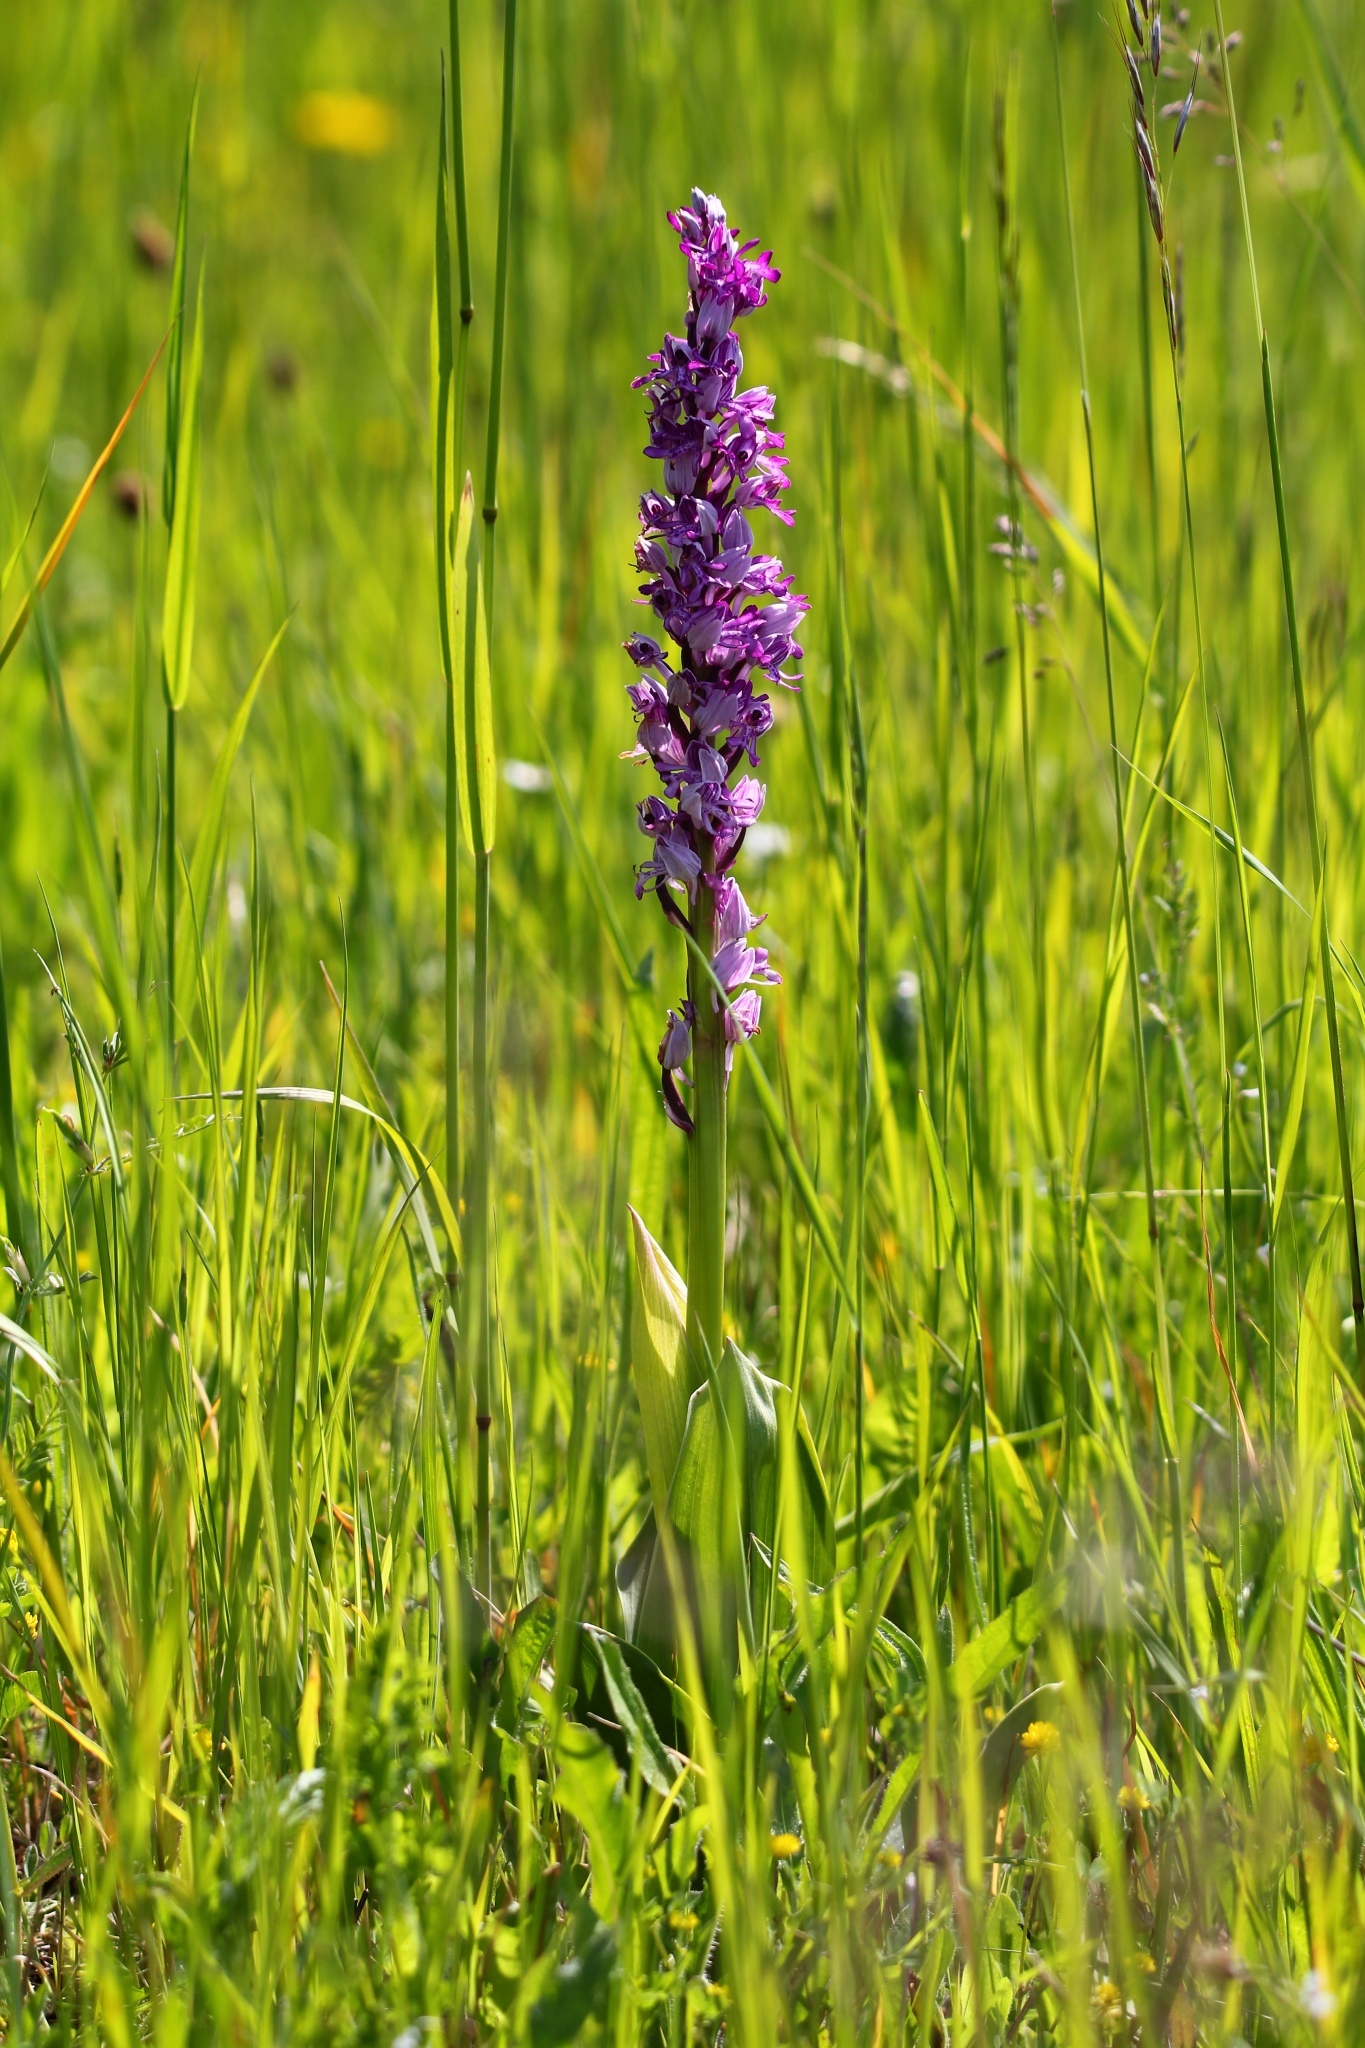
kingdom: Plantae
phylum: Tracheophyta
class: Liliopsida
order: Asparagales
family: Orchidaceae
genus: Orchis
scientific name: Orchis militaris
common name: Military orchid
